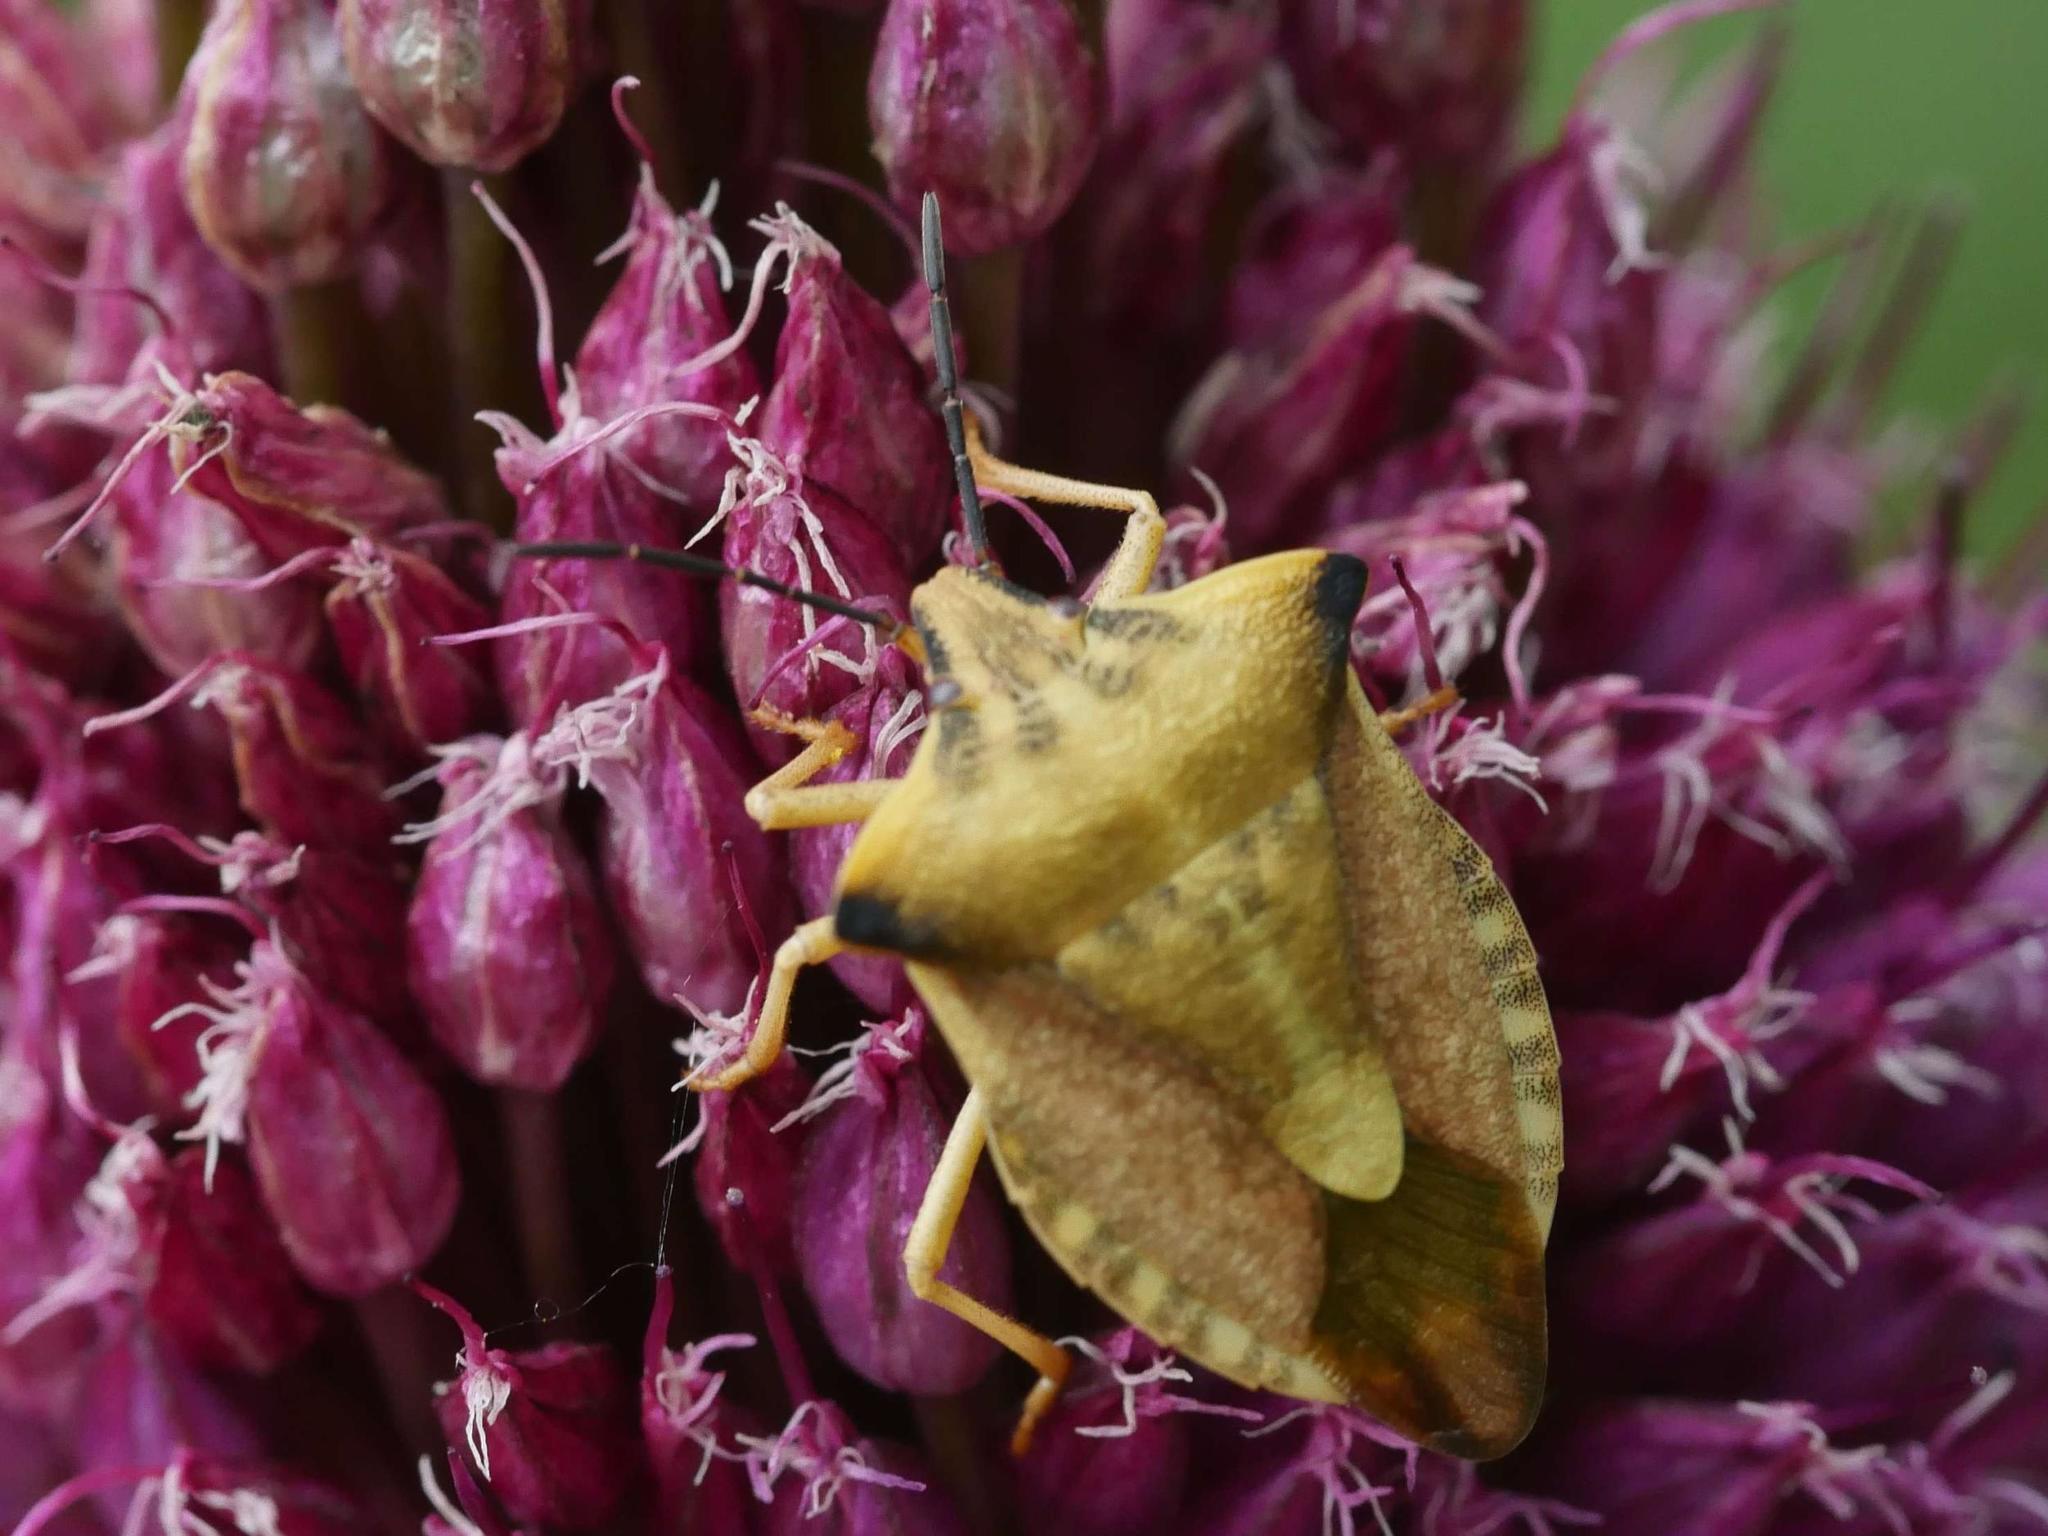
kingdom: Animalia
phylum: Arthropoda
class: Insecta
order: Hemiptera
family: Pentatomidae
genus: Carpocoris
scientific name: Carpocoris fuscispinus
